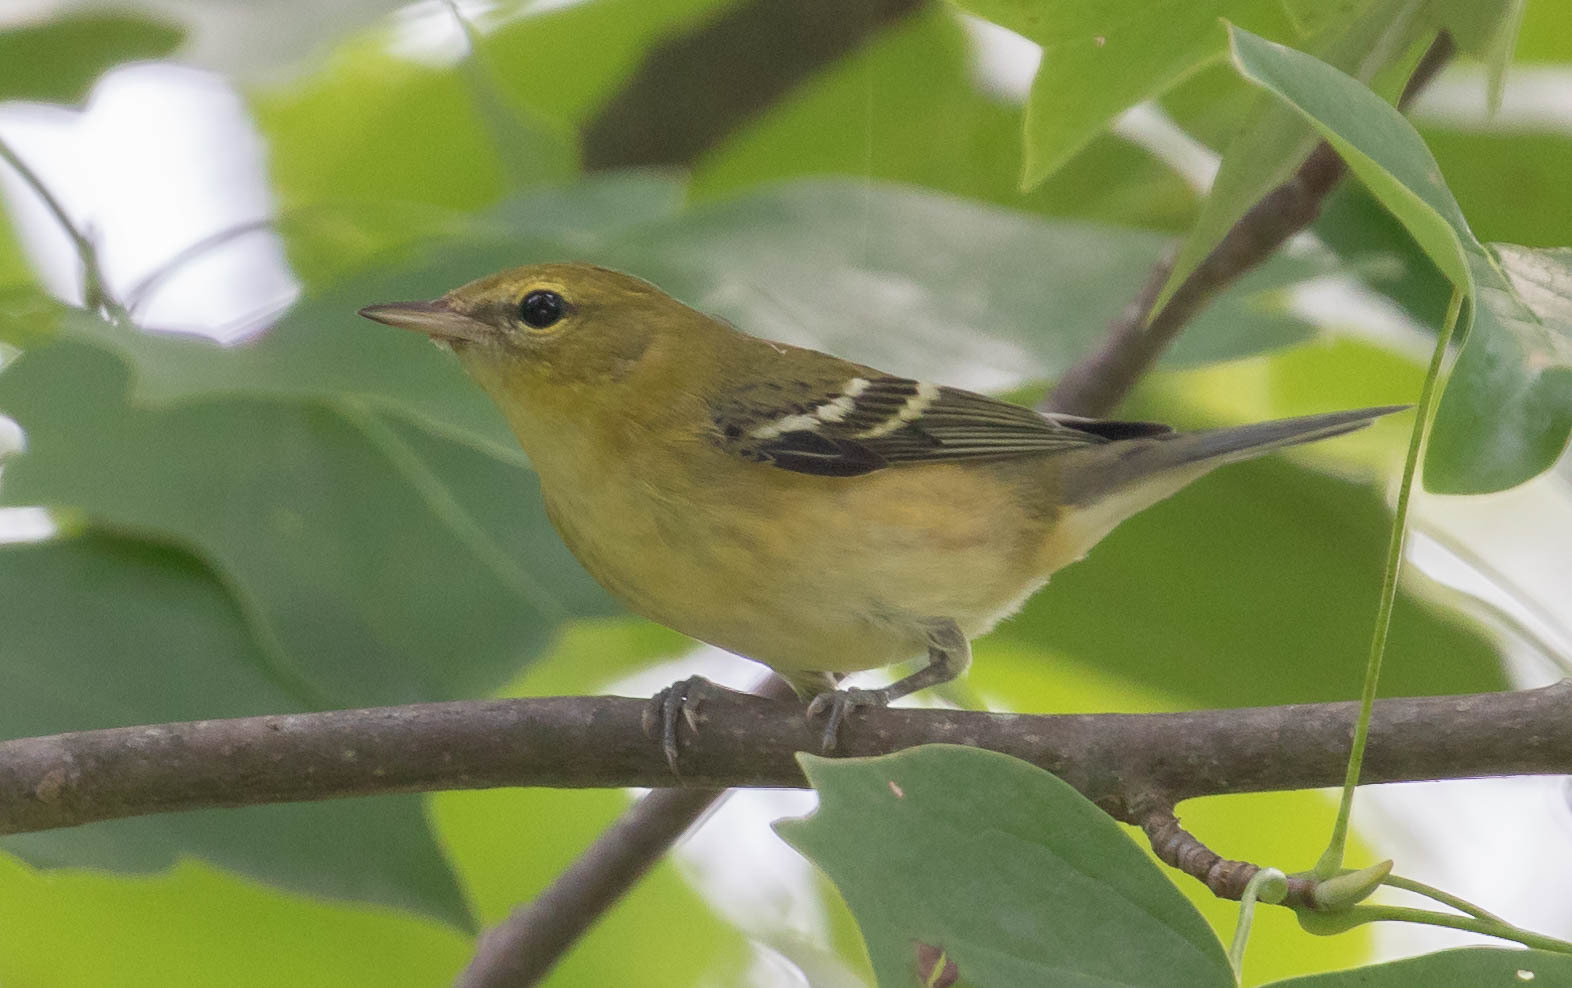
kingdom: Animalia
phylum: Chordata
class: Aves
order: Passeriformes
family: Parulidae
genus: Setophaga
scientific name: Setophaga castanea
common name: Bay-breasted warbler
